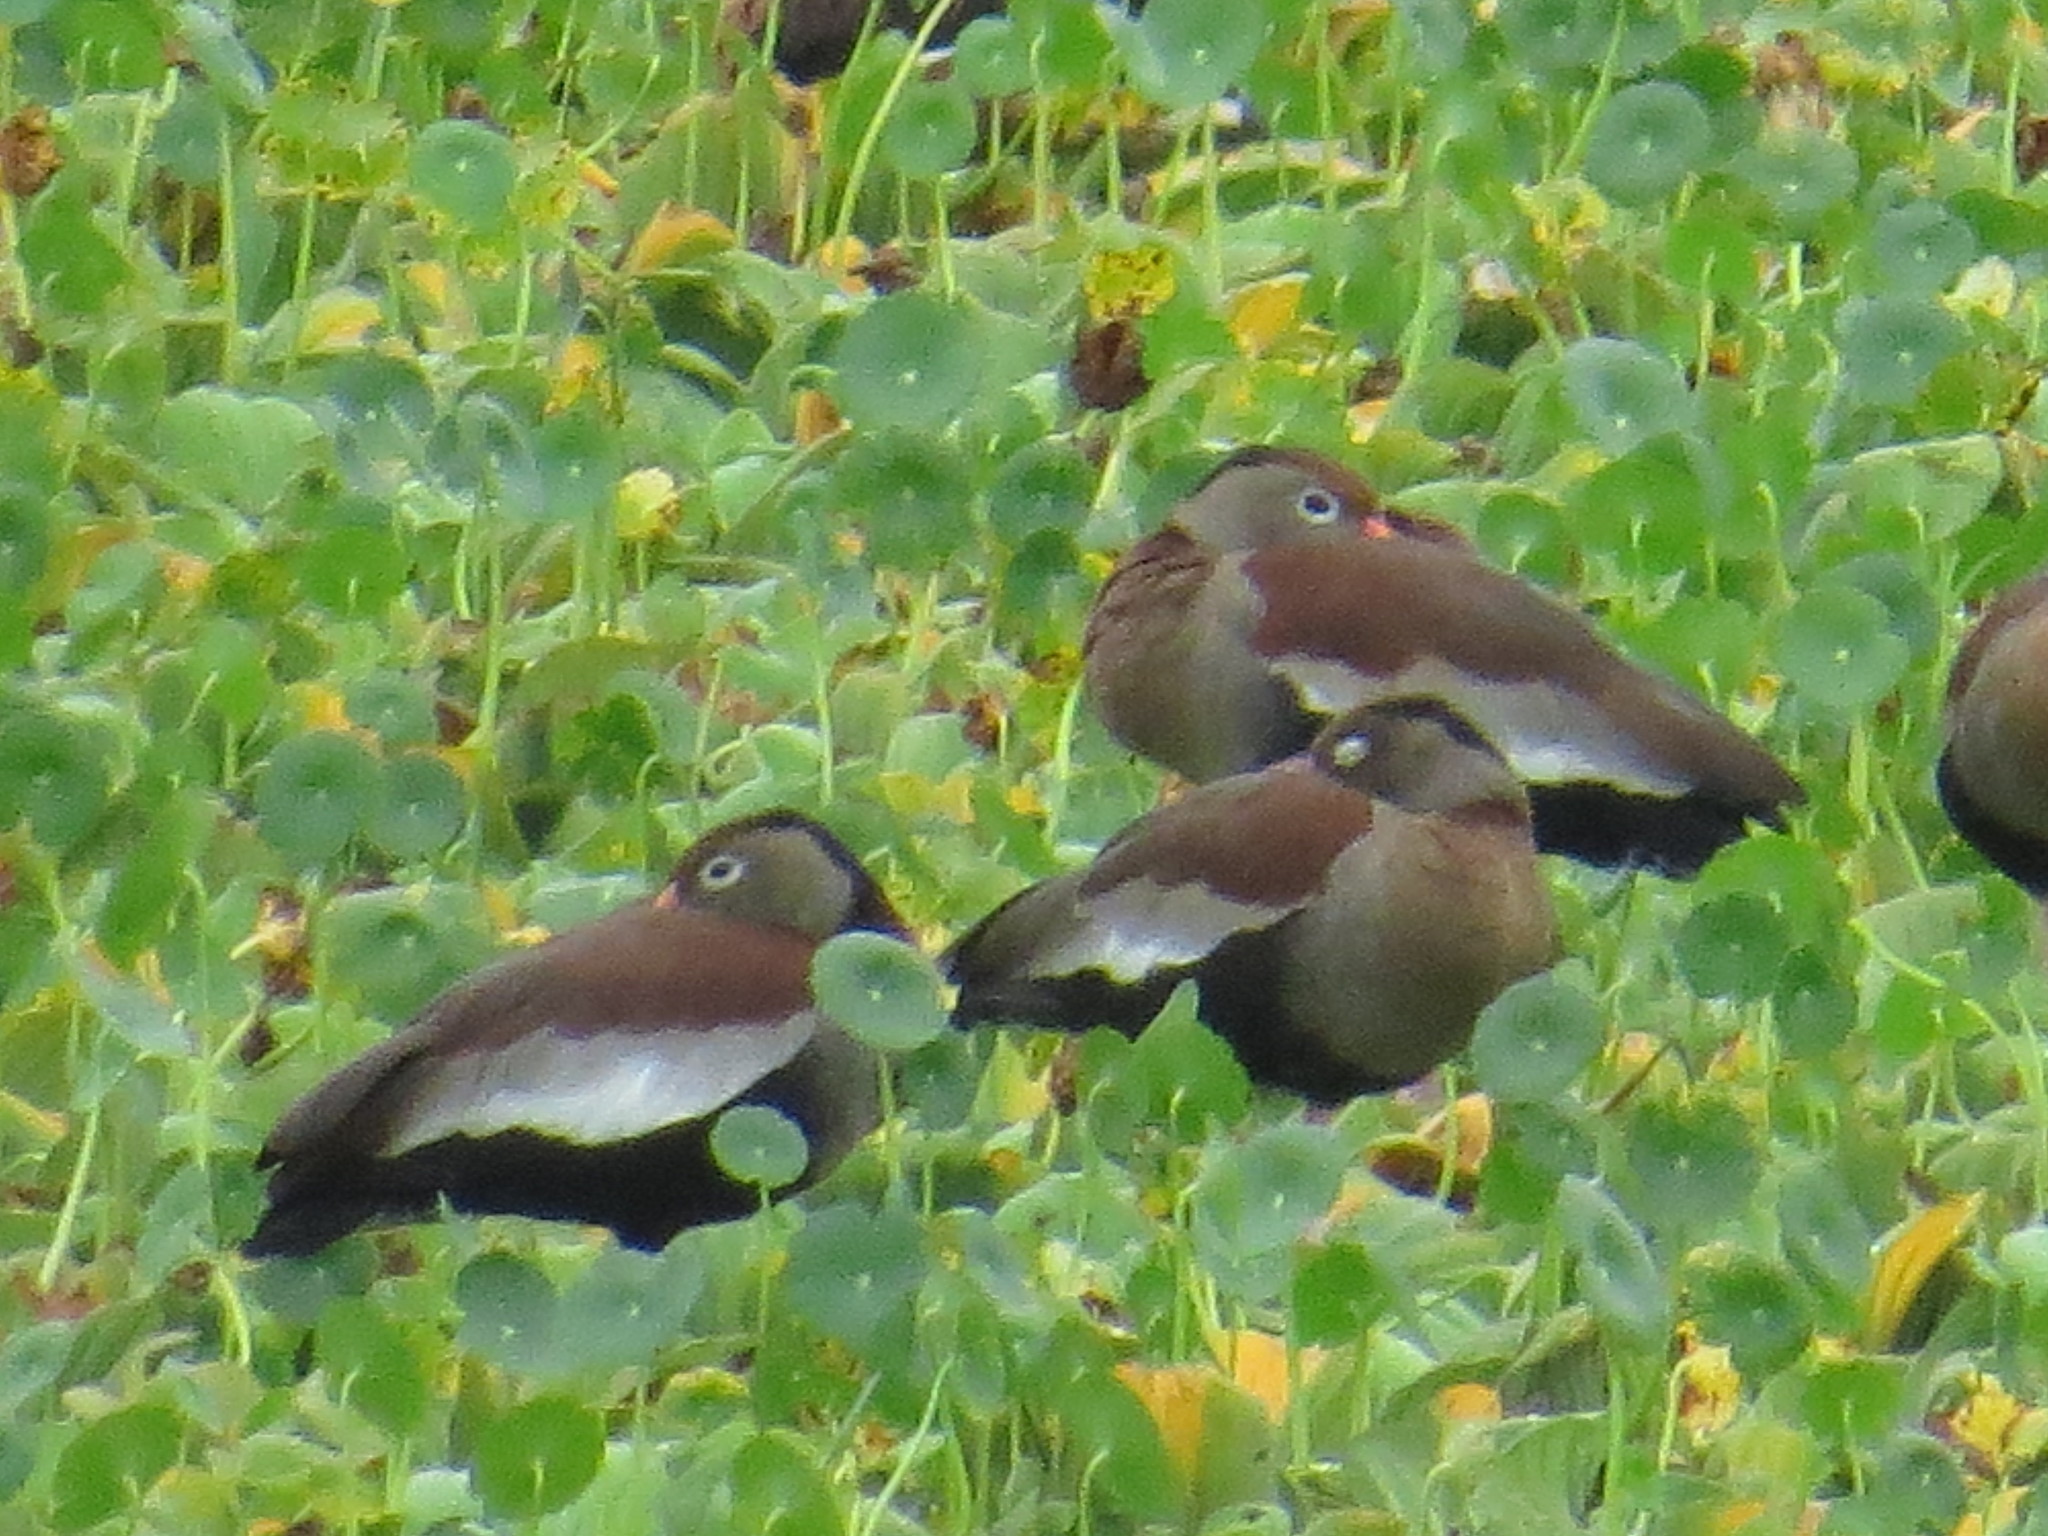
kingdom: Animalia
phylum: Chordata
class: Aves
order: Anseriformes
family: Anatidae
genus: Dendrocygna
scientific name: Dendrocygna autumnalis
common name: Black-bellied whistling duck
